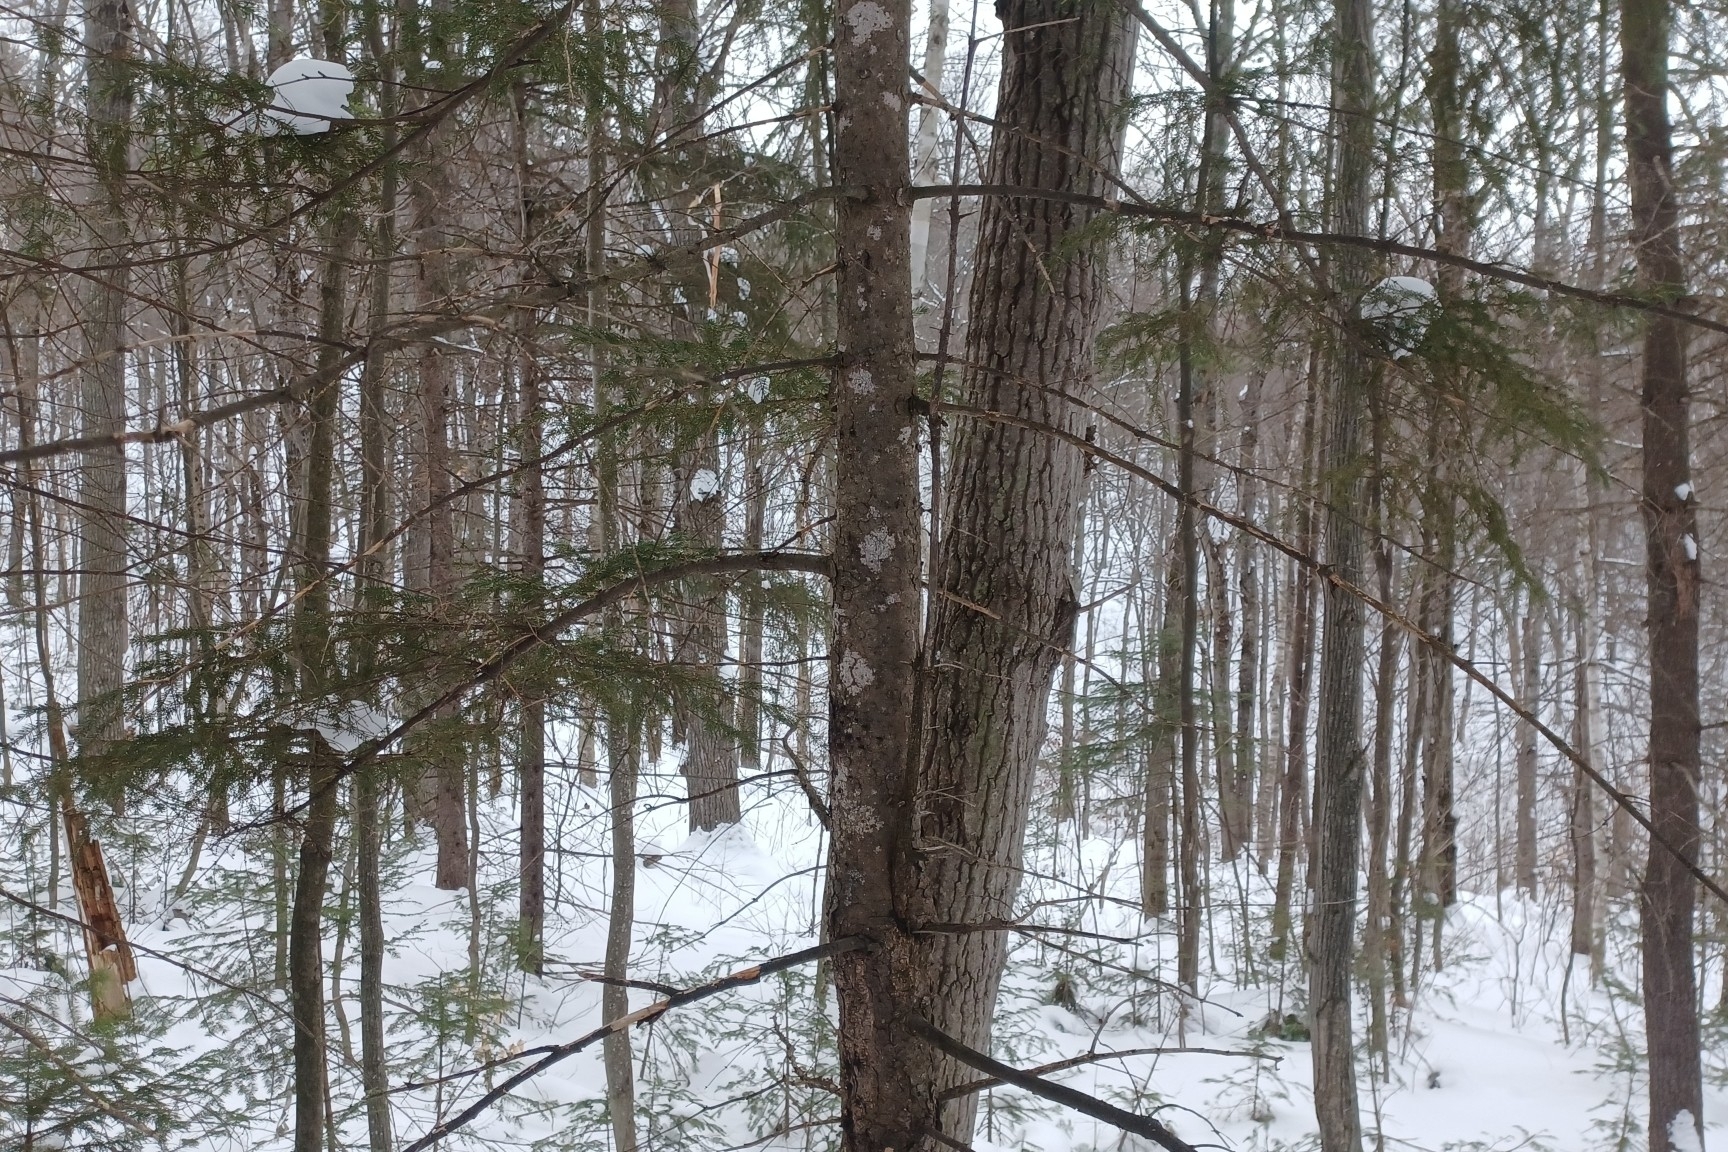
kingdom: Plantae
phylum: Tracheophyta
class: Pinopsida
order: Pinales
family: Pinaceae
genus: Picea
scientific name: Picea rubens
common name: Red spruce
